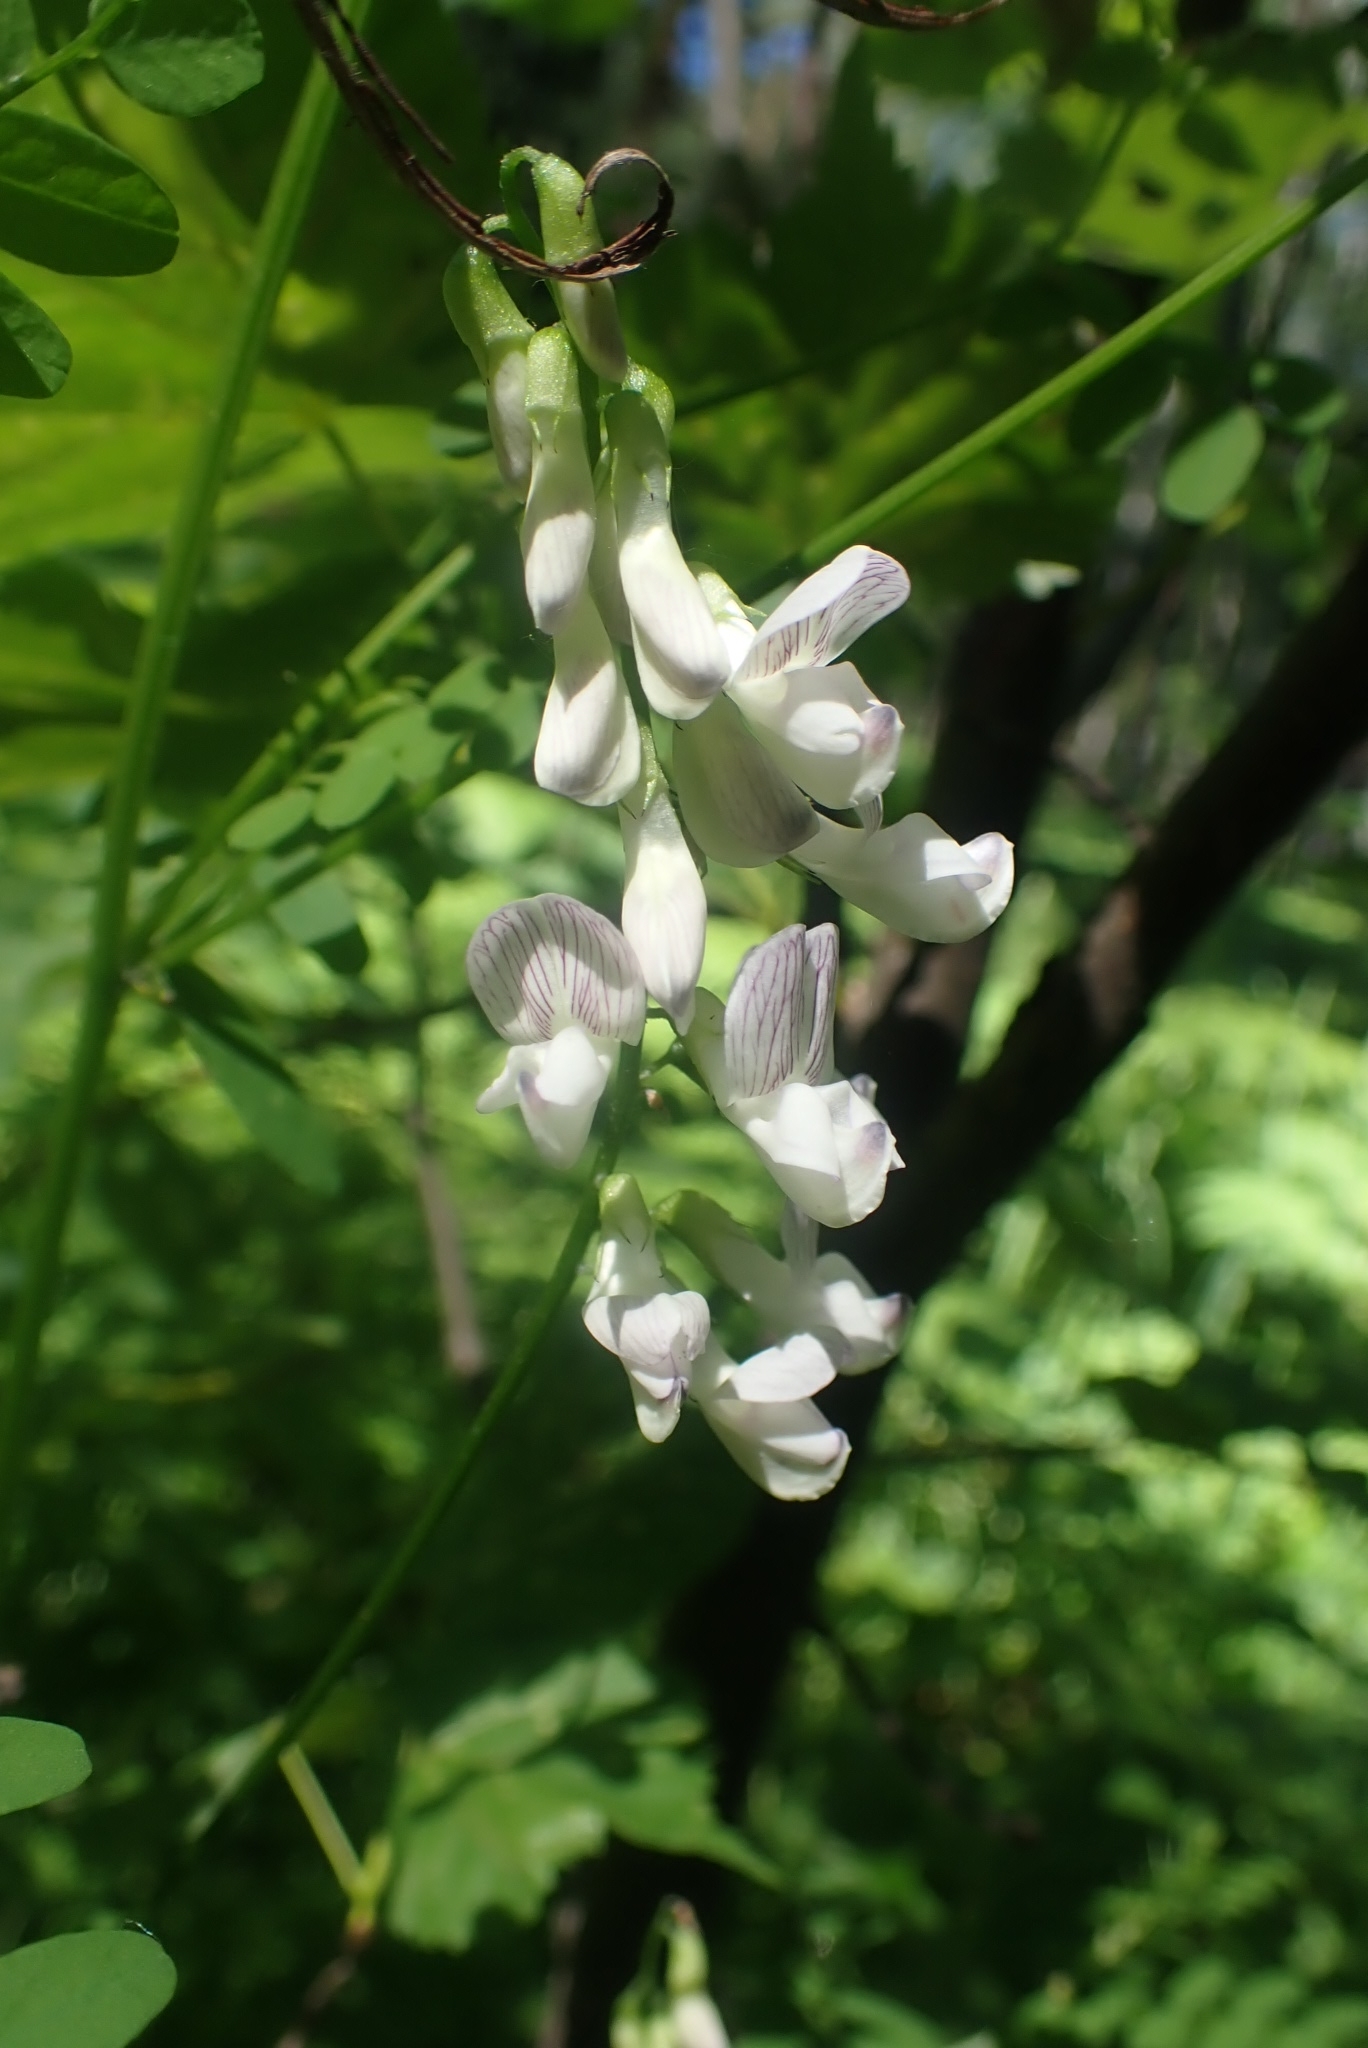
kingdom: Plantae
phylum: Tracheophyta
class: Magnoliopsida
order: Fabales
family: Fabaceae
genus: Vicia
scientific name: Vicia sylvatica
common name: Wood vetch
